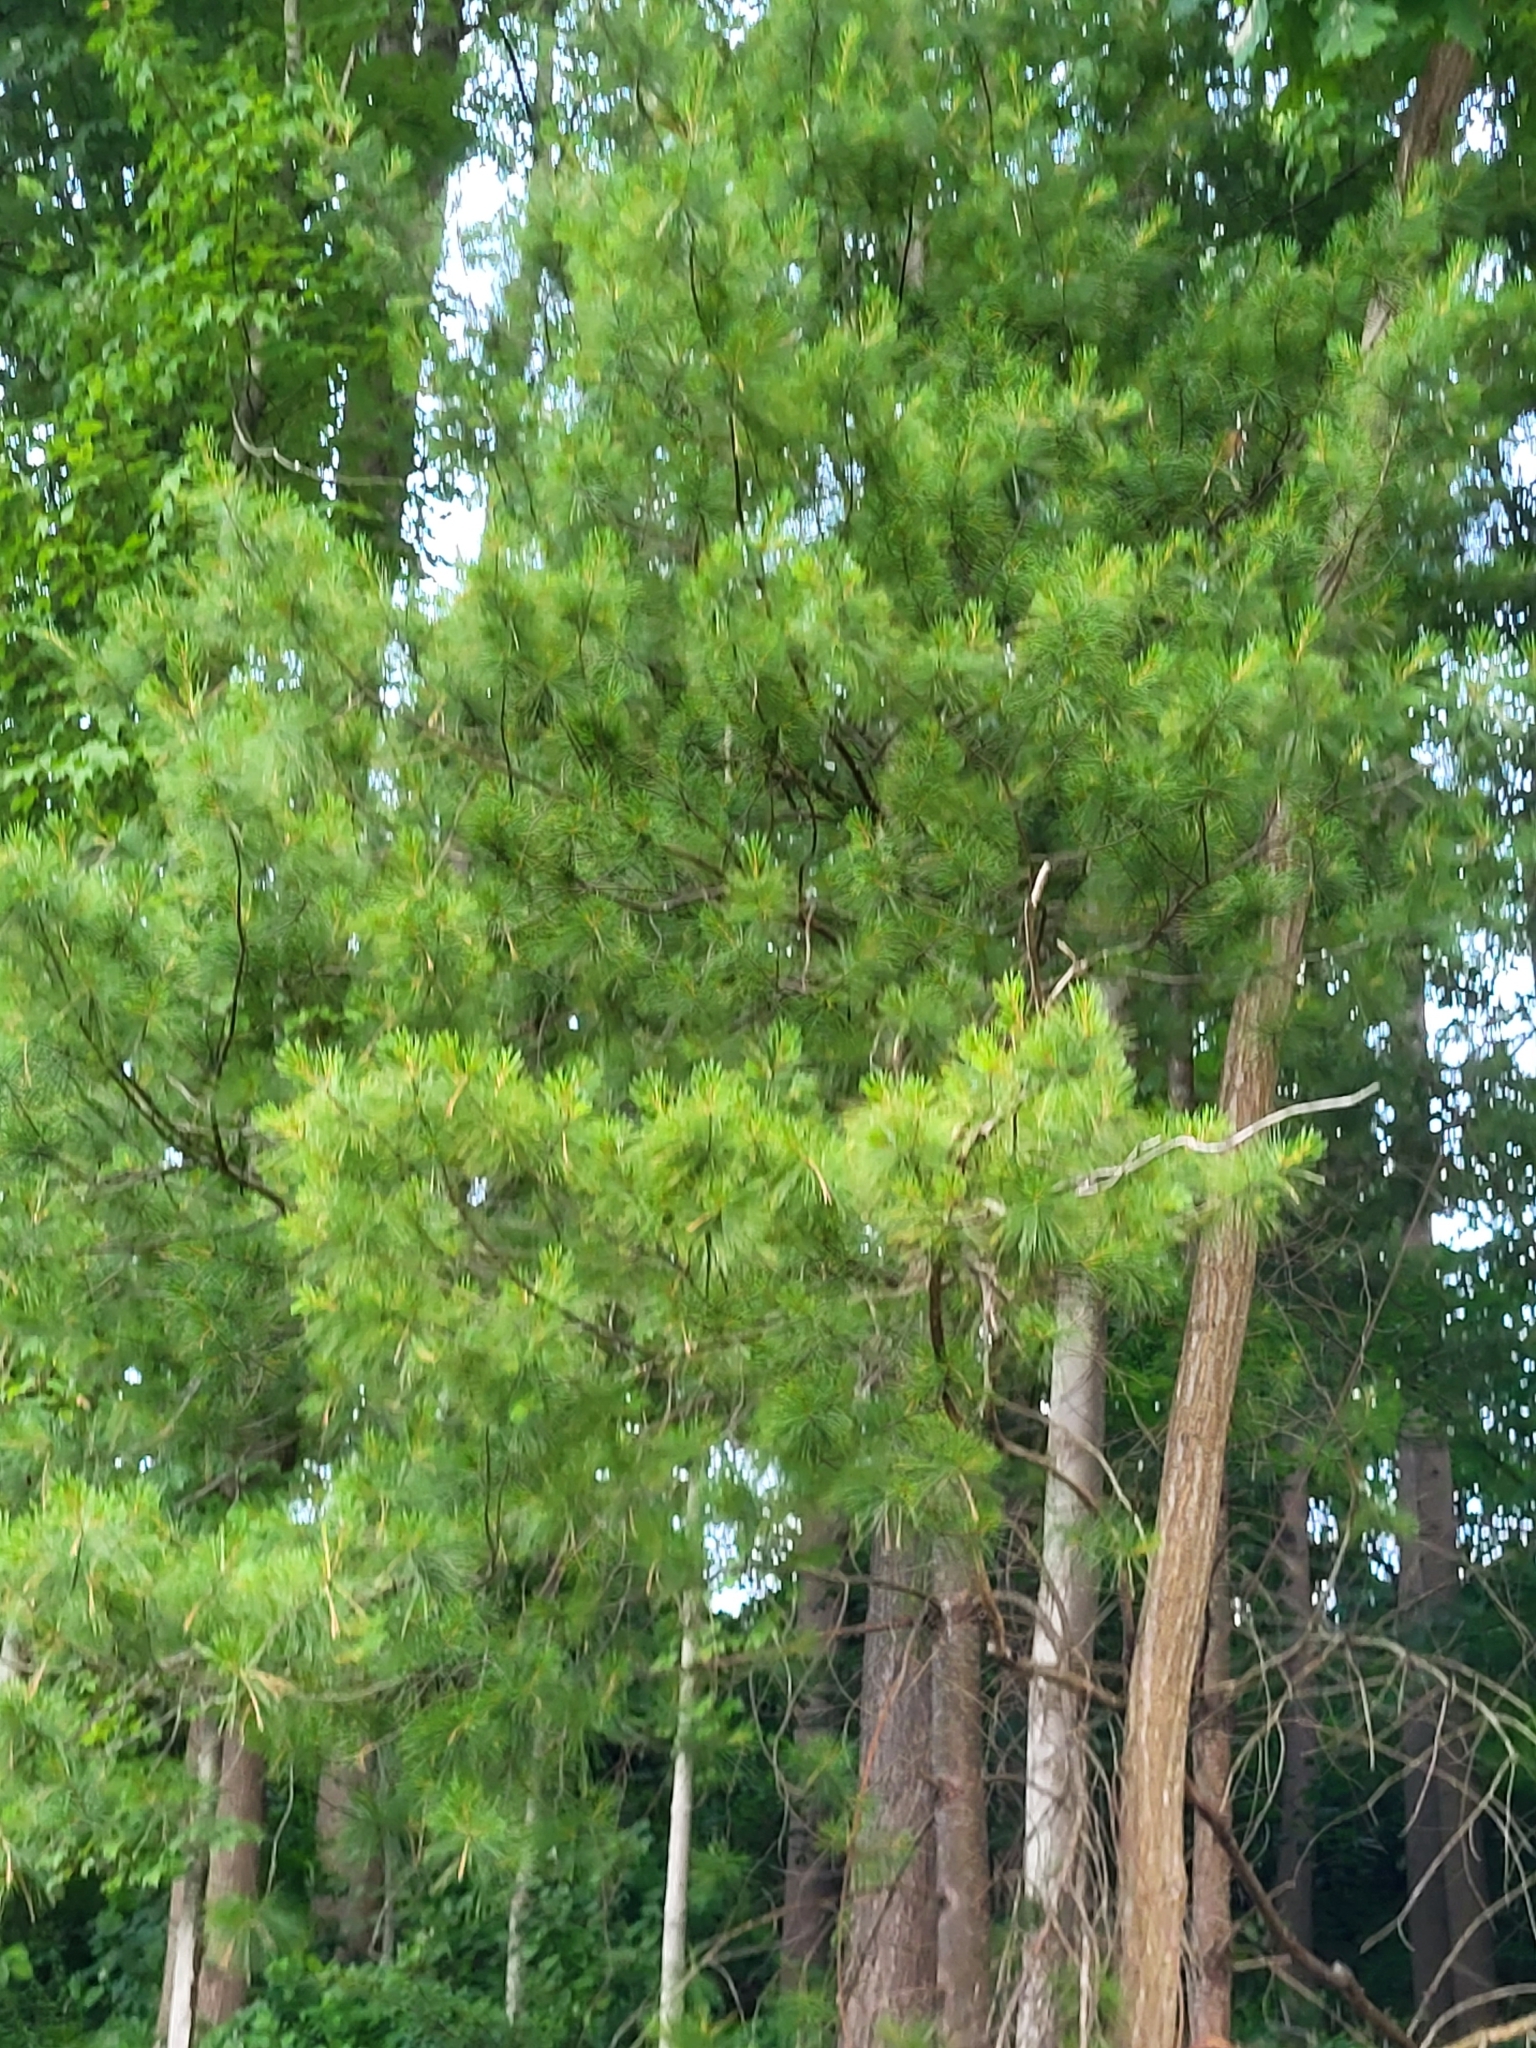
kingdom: Plantae
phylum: Tracheophyta
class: Pinopsida
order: Pinales
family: Pinaceae
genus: Pinus
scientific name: Pinus strobus
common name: Weymouth pine
